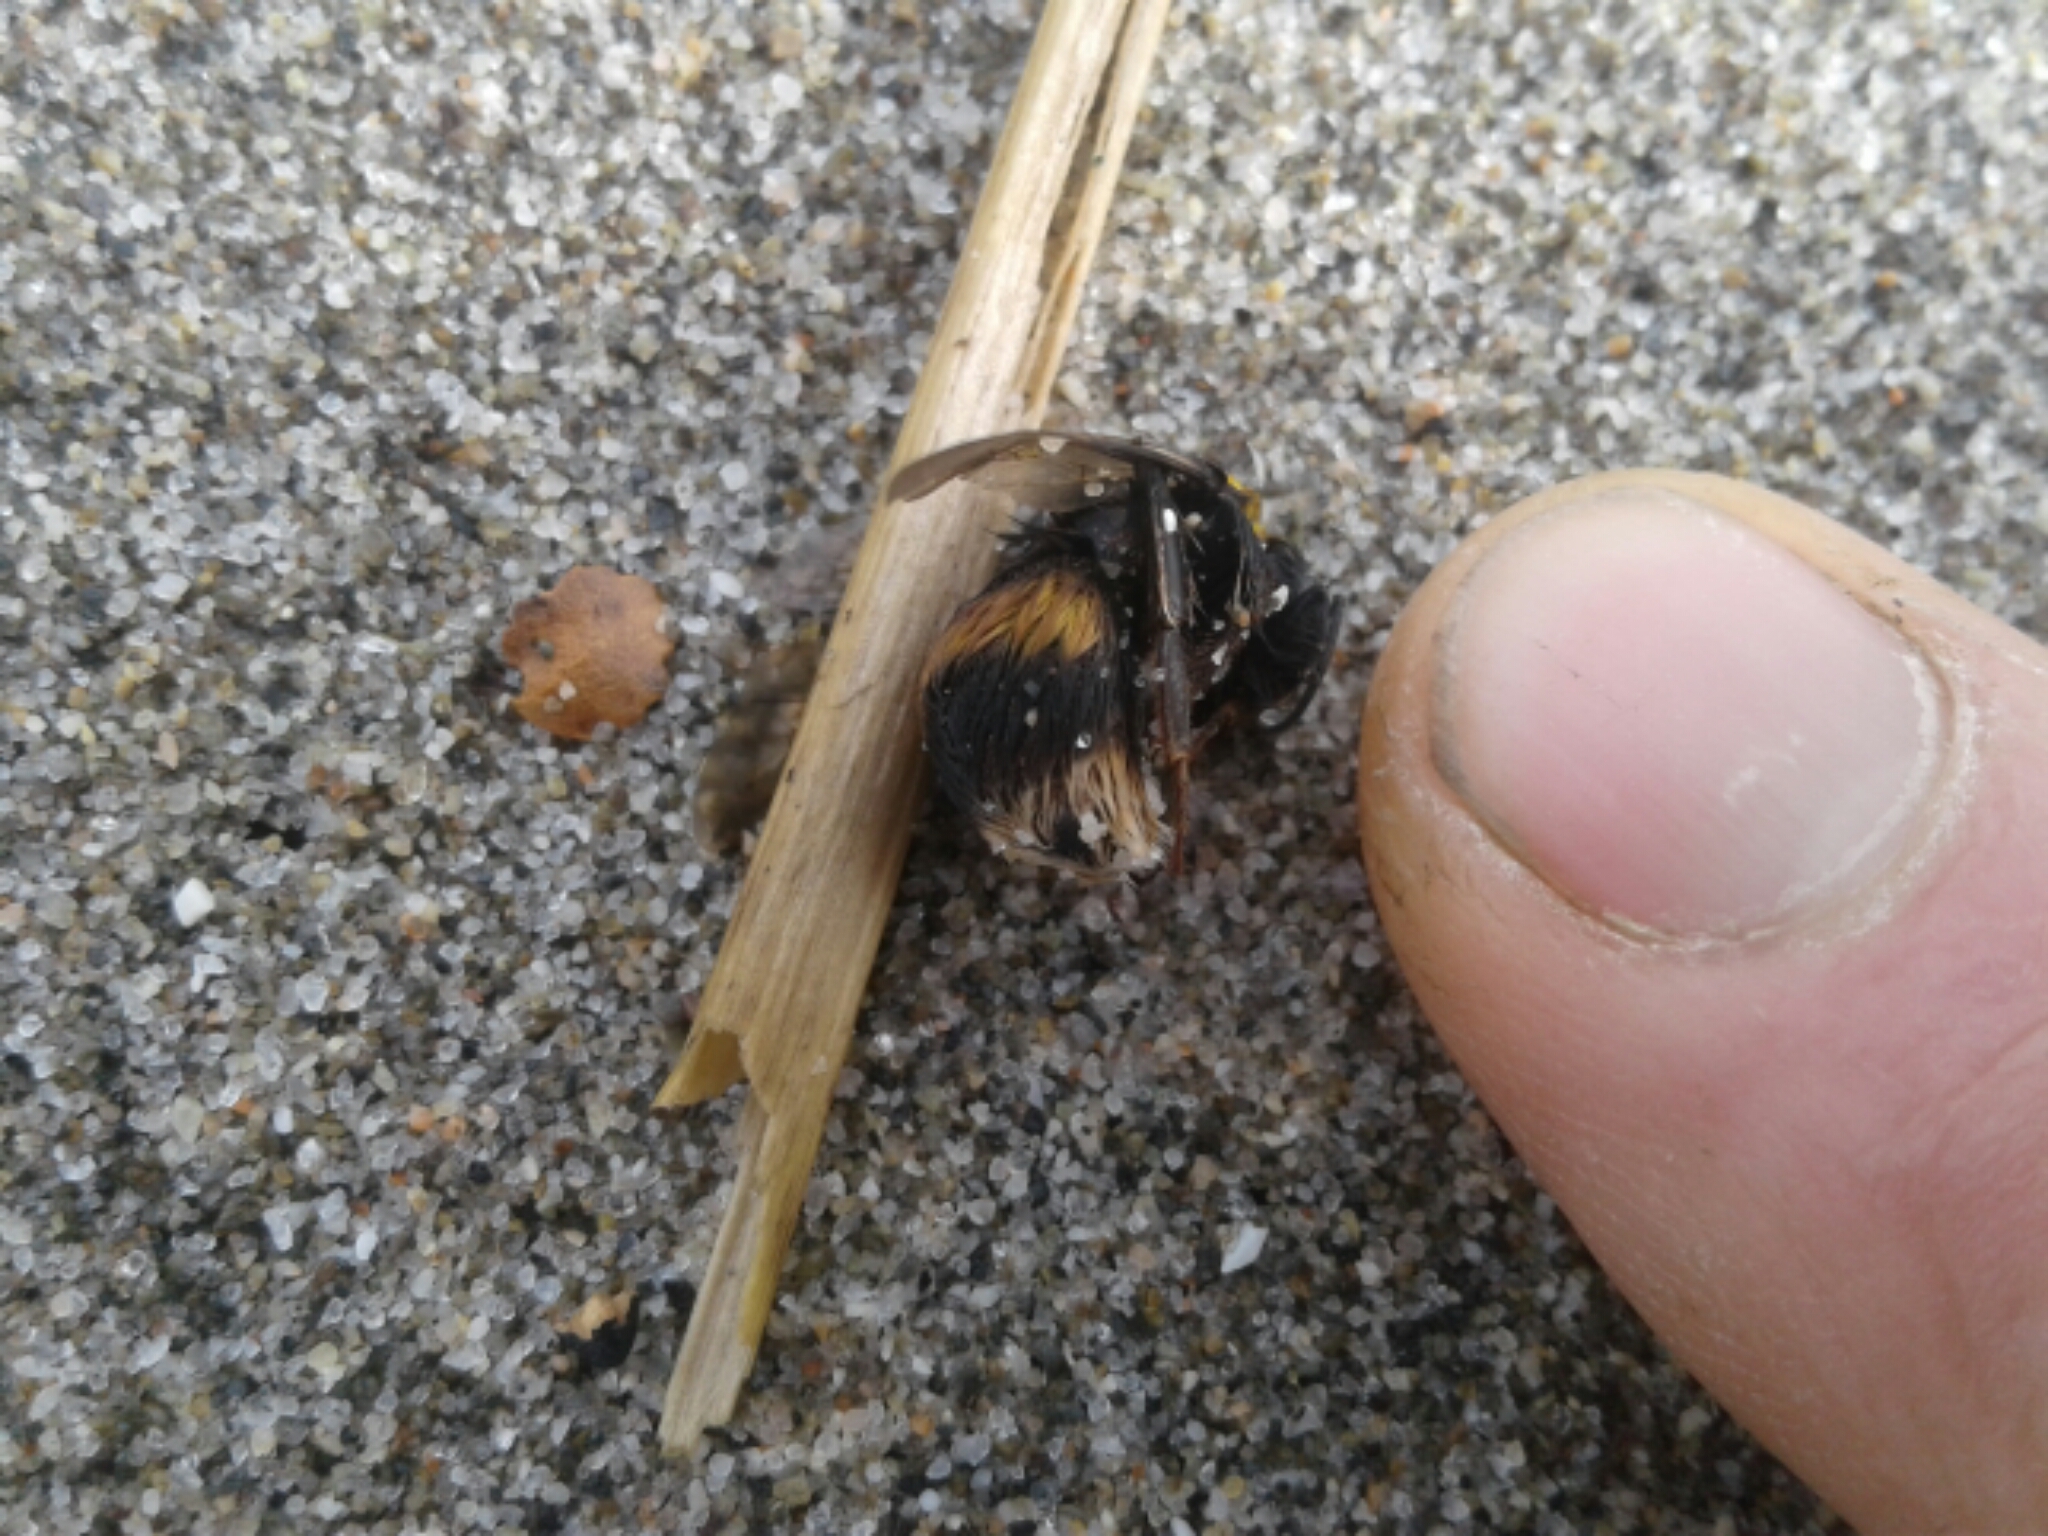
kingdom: Animalia
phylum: Arthropoda
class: Insecta
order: Hymenoptera
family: Apidae
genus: Bombus
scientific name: Bombus
